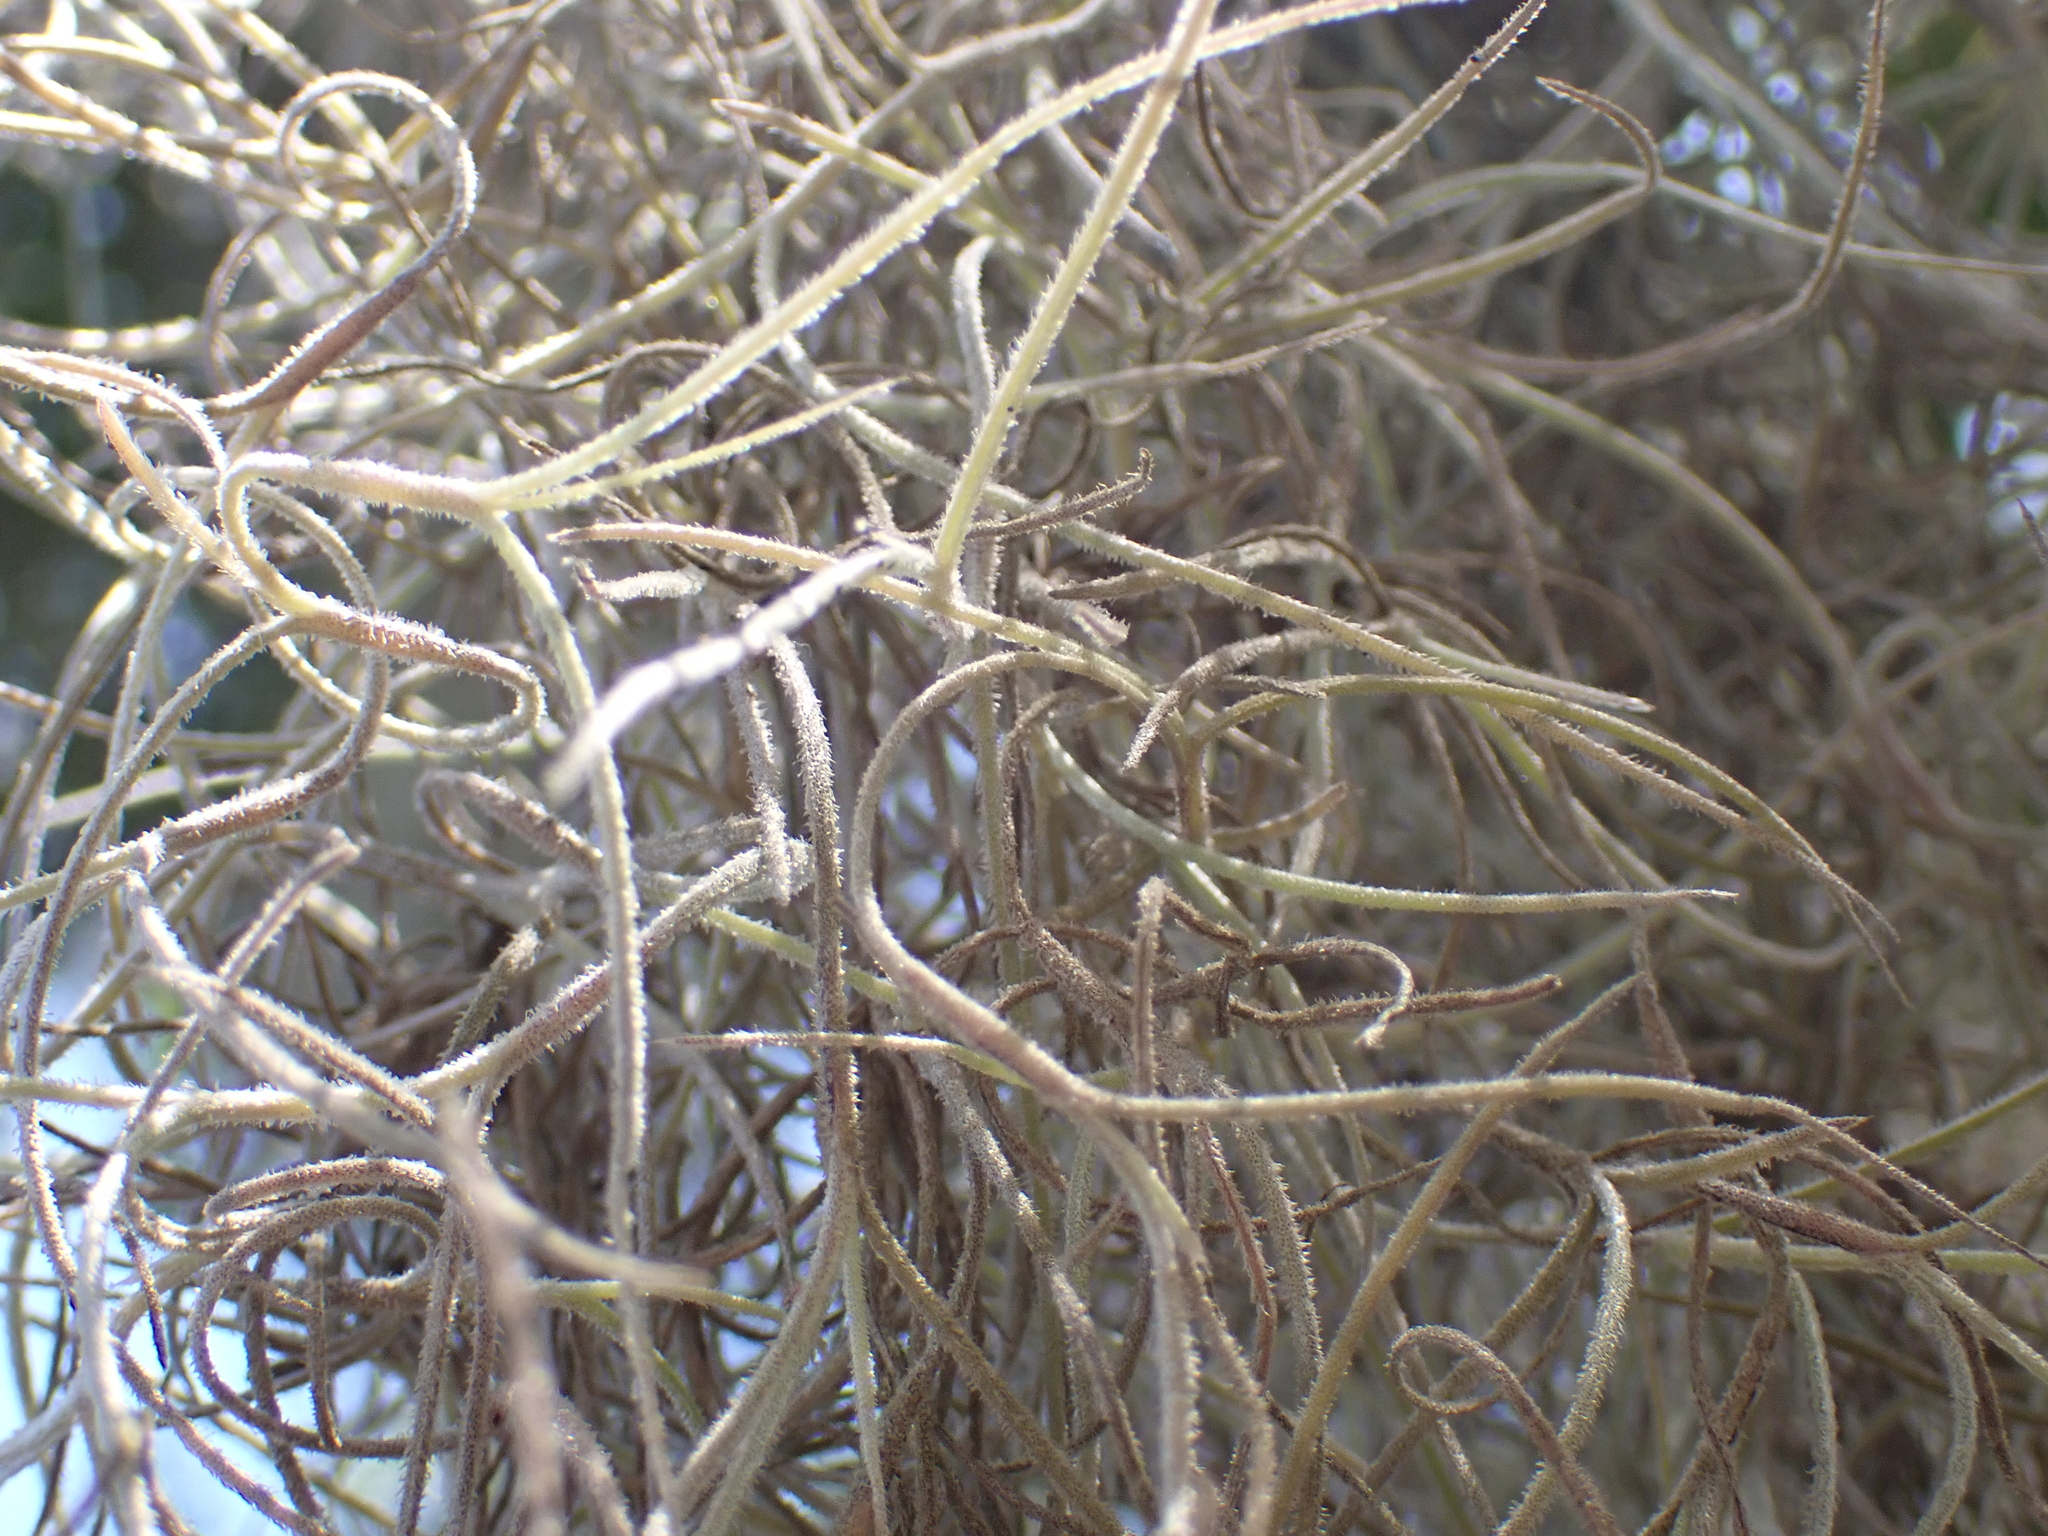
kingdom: Plantae
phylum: Tracheophyta
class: Liliopsida
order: Poales
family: Bromeliaceae
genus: Tillandsia
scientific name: Tillandsia usneoides
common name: Spanish moss
